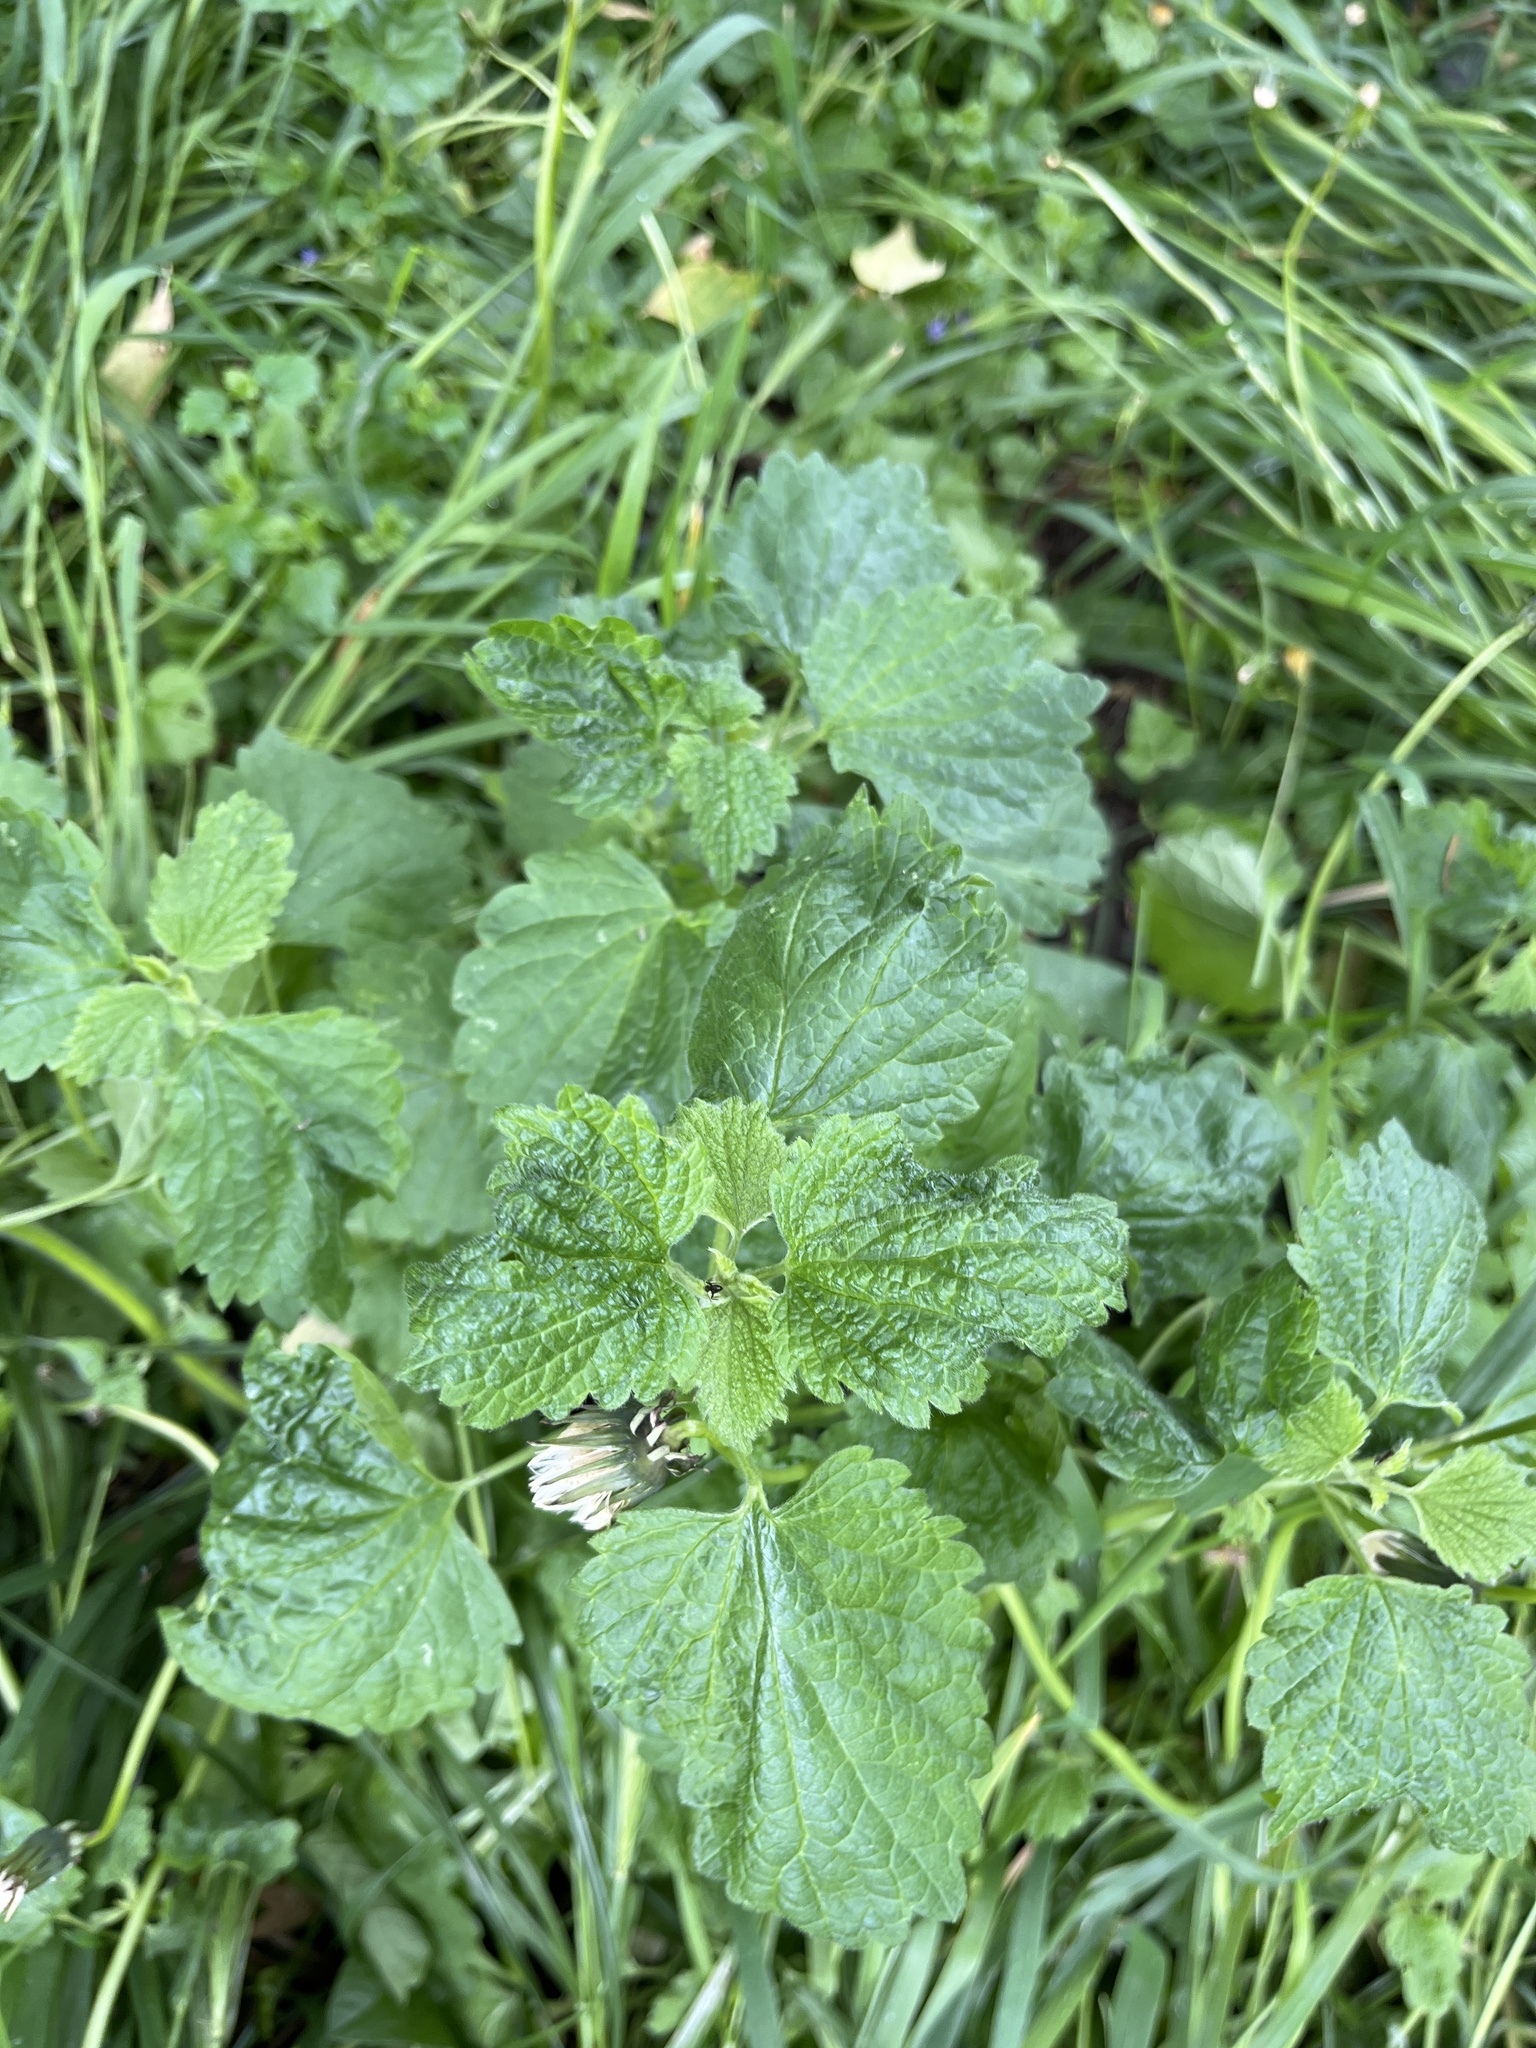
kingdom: Plantae
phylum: Tracheophyta
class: Magnoliopsida
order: Lamiales
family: Lamiaceae
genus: Ballota
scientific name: Ballota nigra
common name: Black horehound
